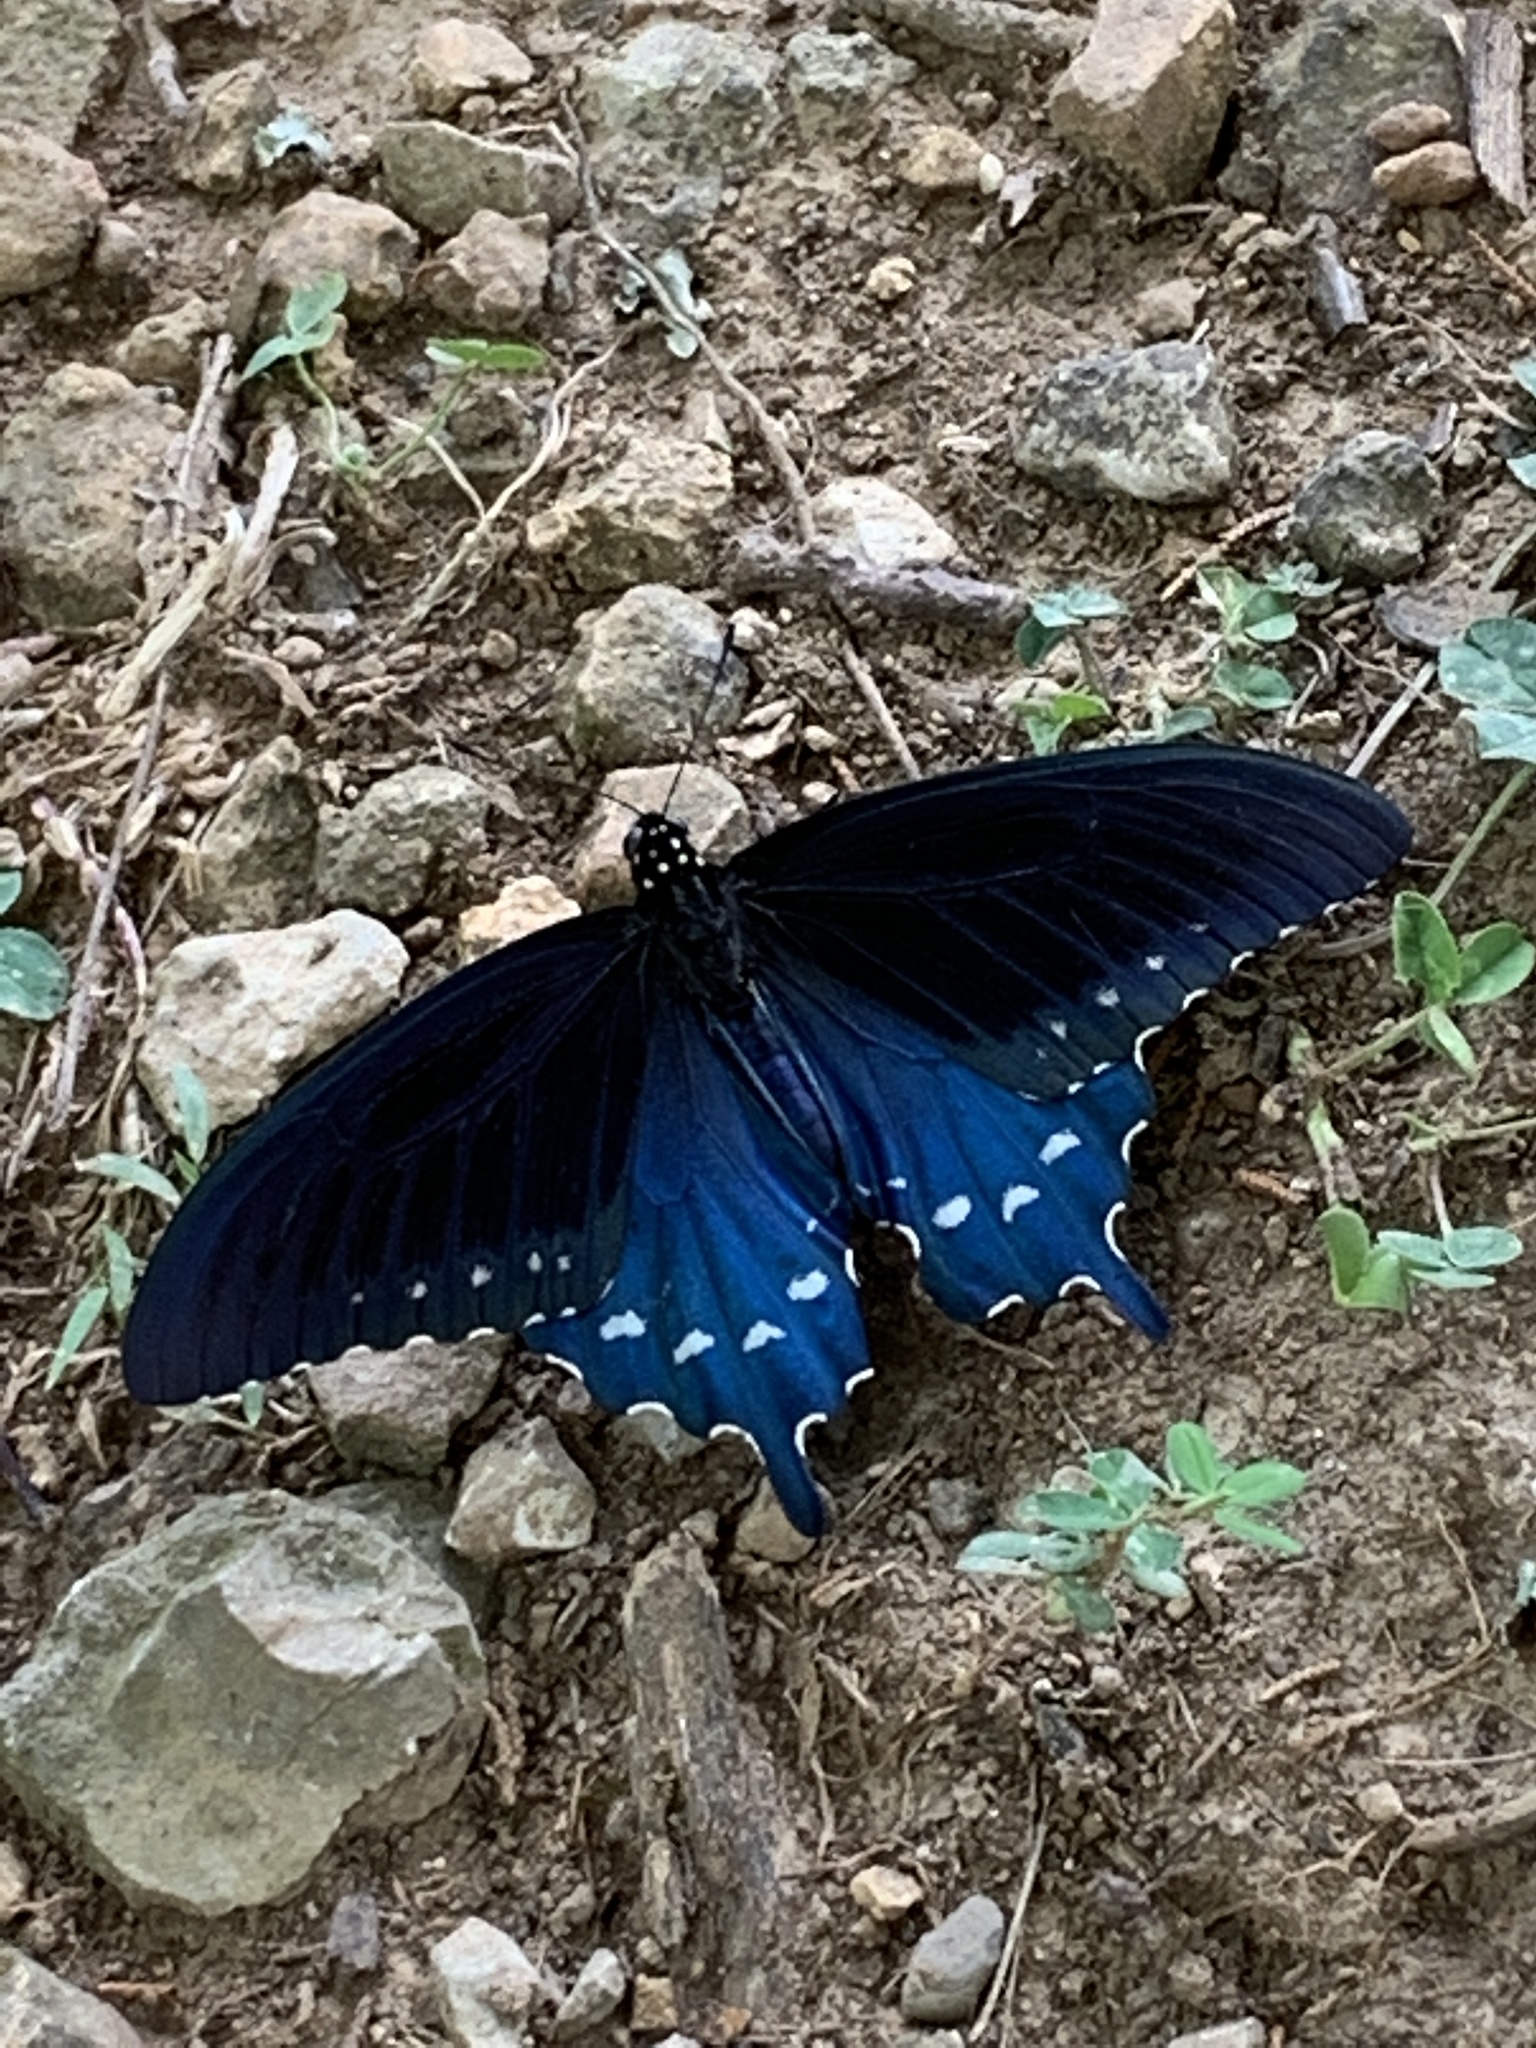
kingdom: Animalia
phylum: Arthropoda
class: Insecta
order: Lepidoptera
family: Papilionidae
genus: Battus
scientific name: Battus philenor
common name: Pipevine swallowtail
